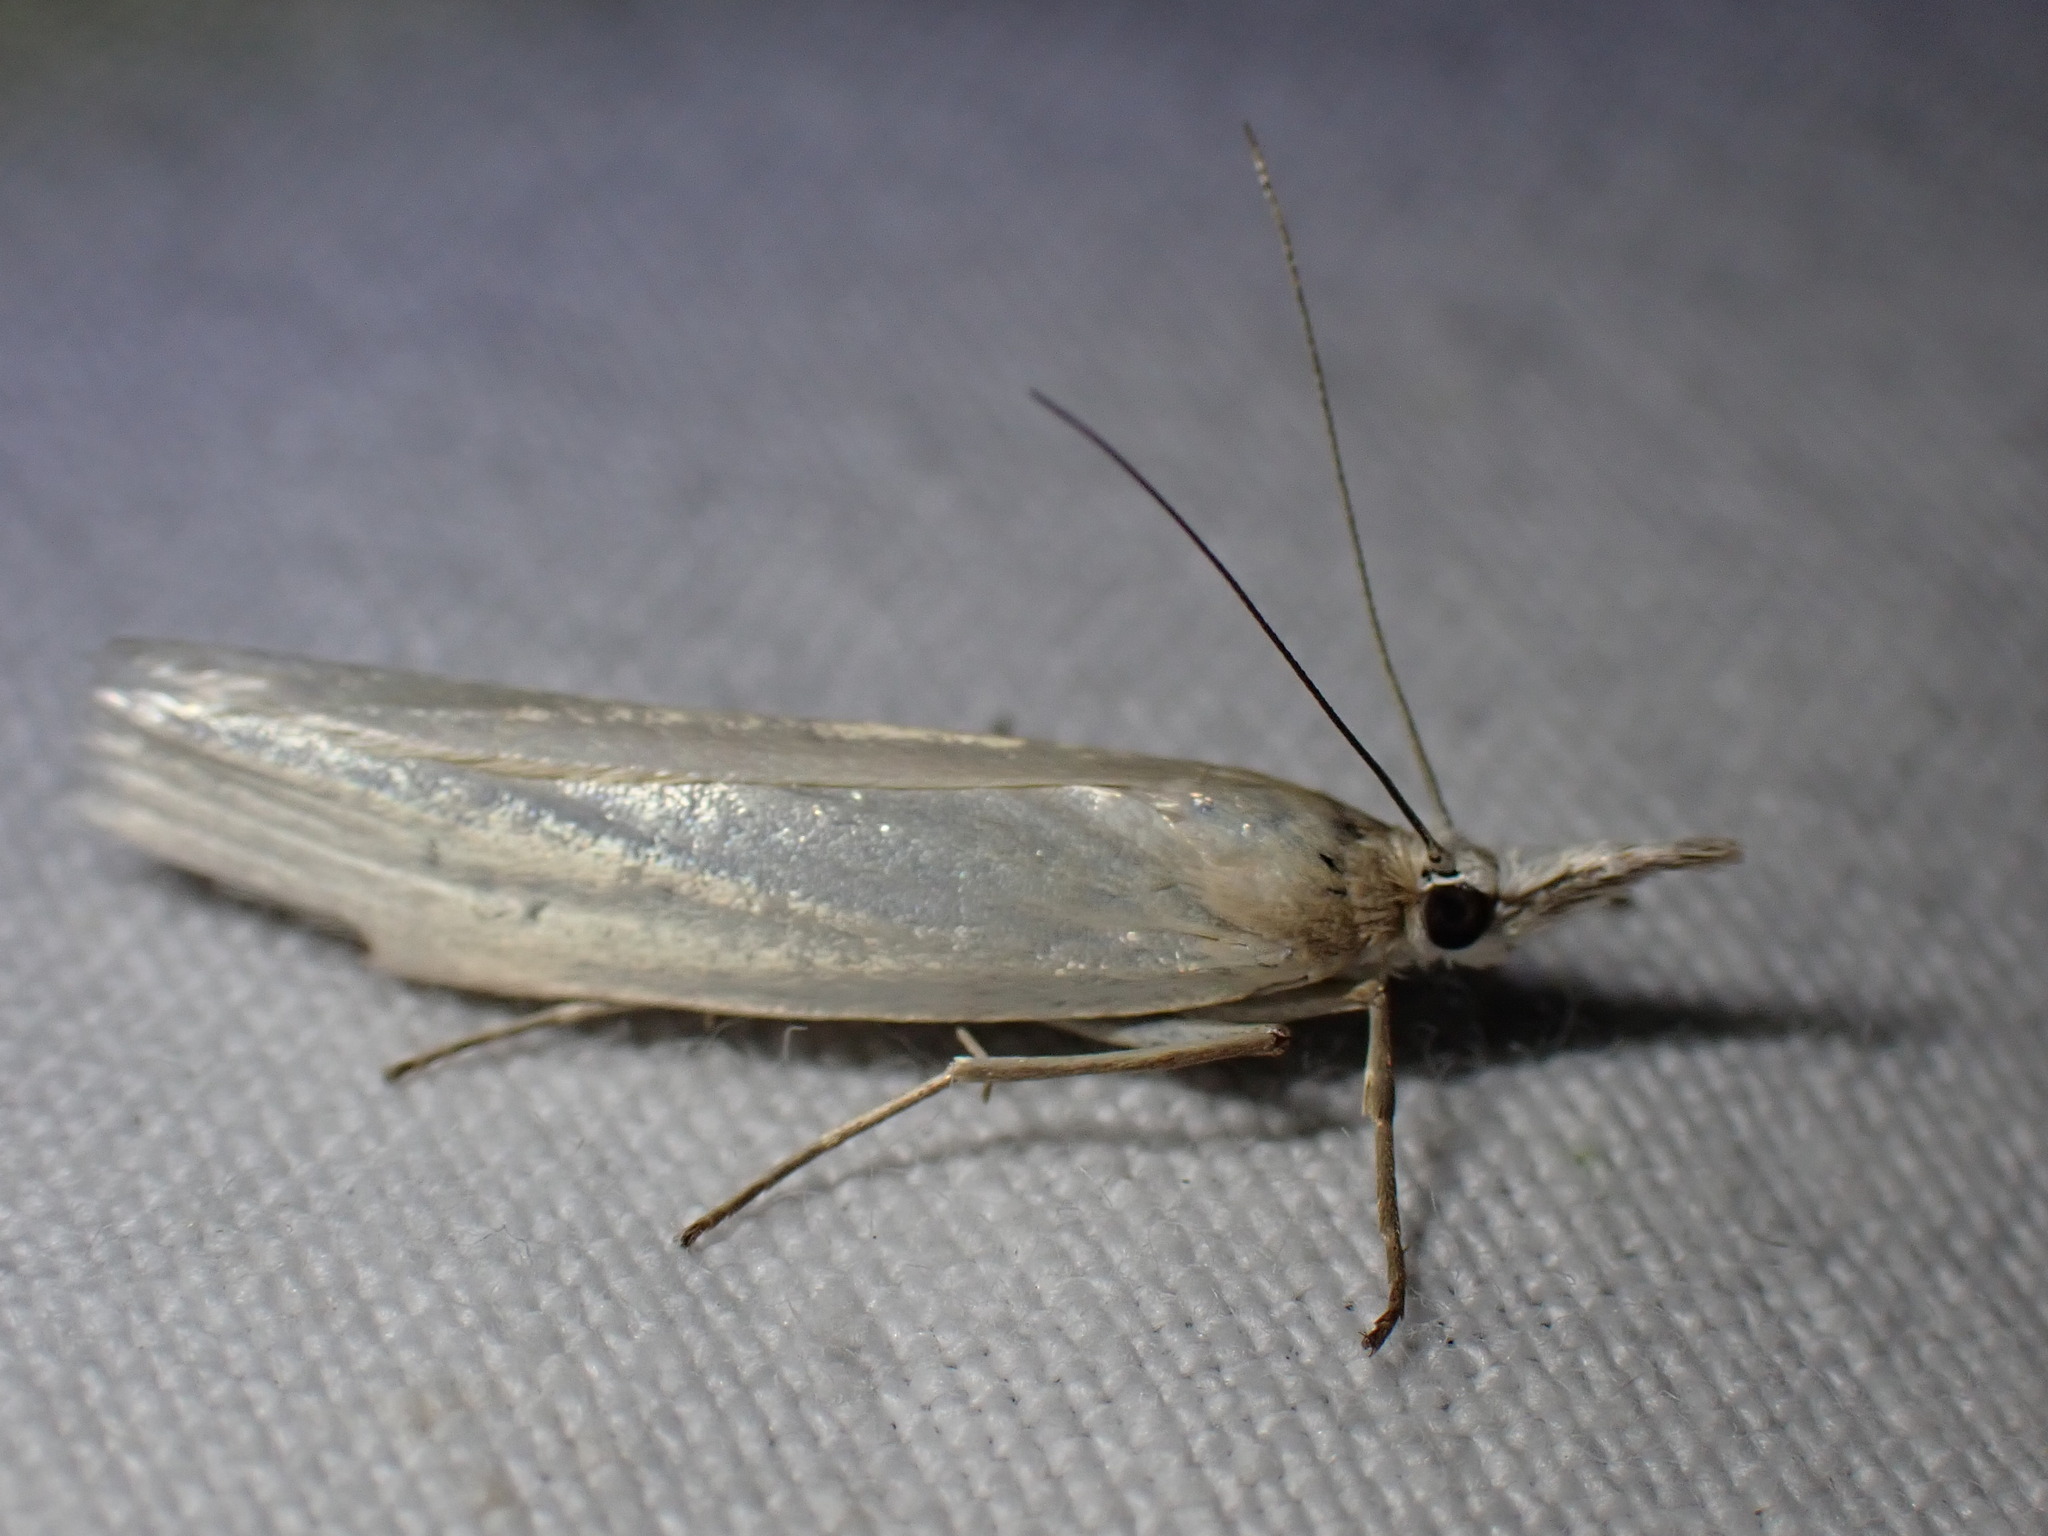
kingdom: Animalia
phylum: Arthropoda
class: Insecta
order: Lepidoptera
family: Crambidae
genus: Crambus
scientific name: Crambus perlellus
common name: Yellow satin veneer
